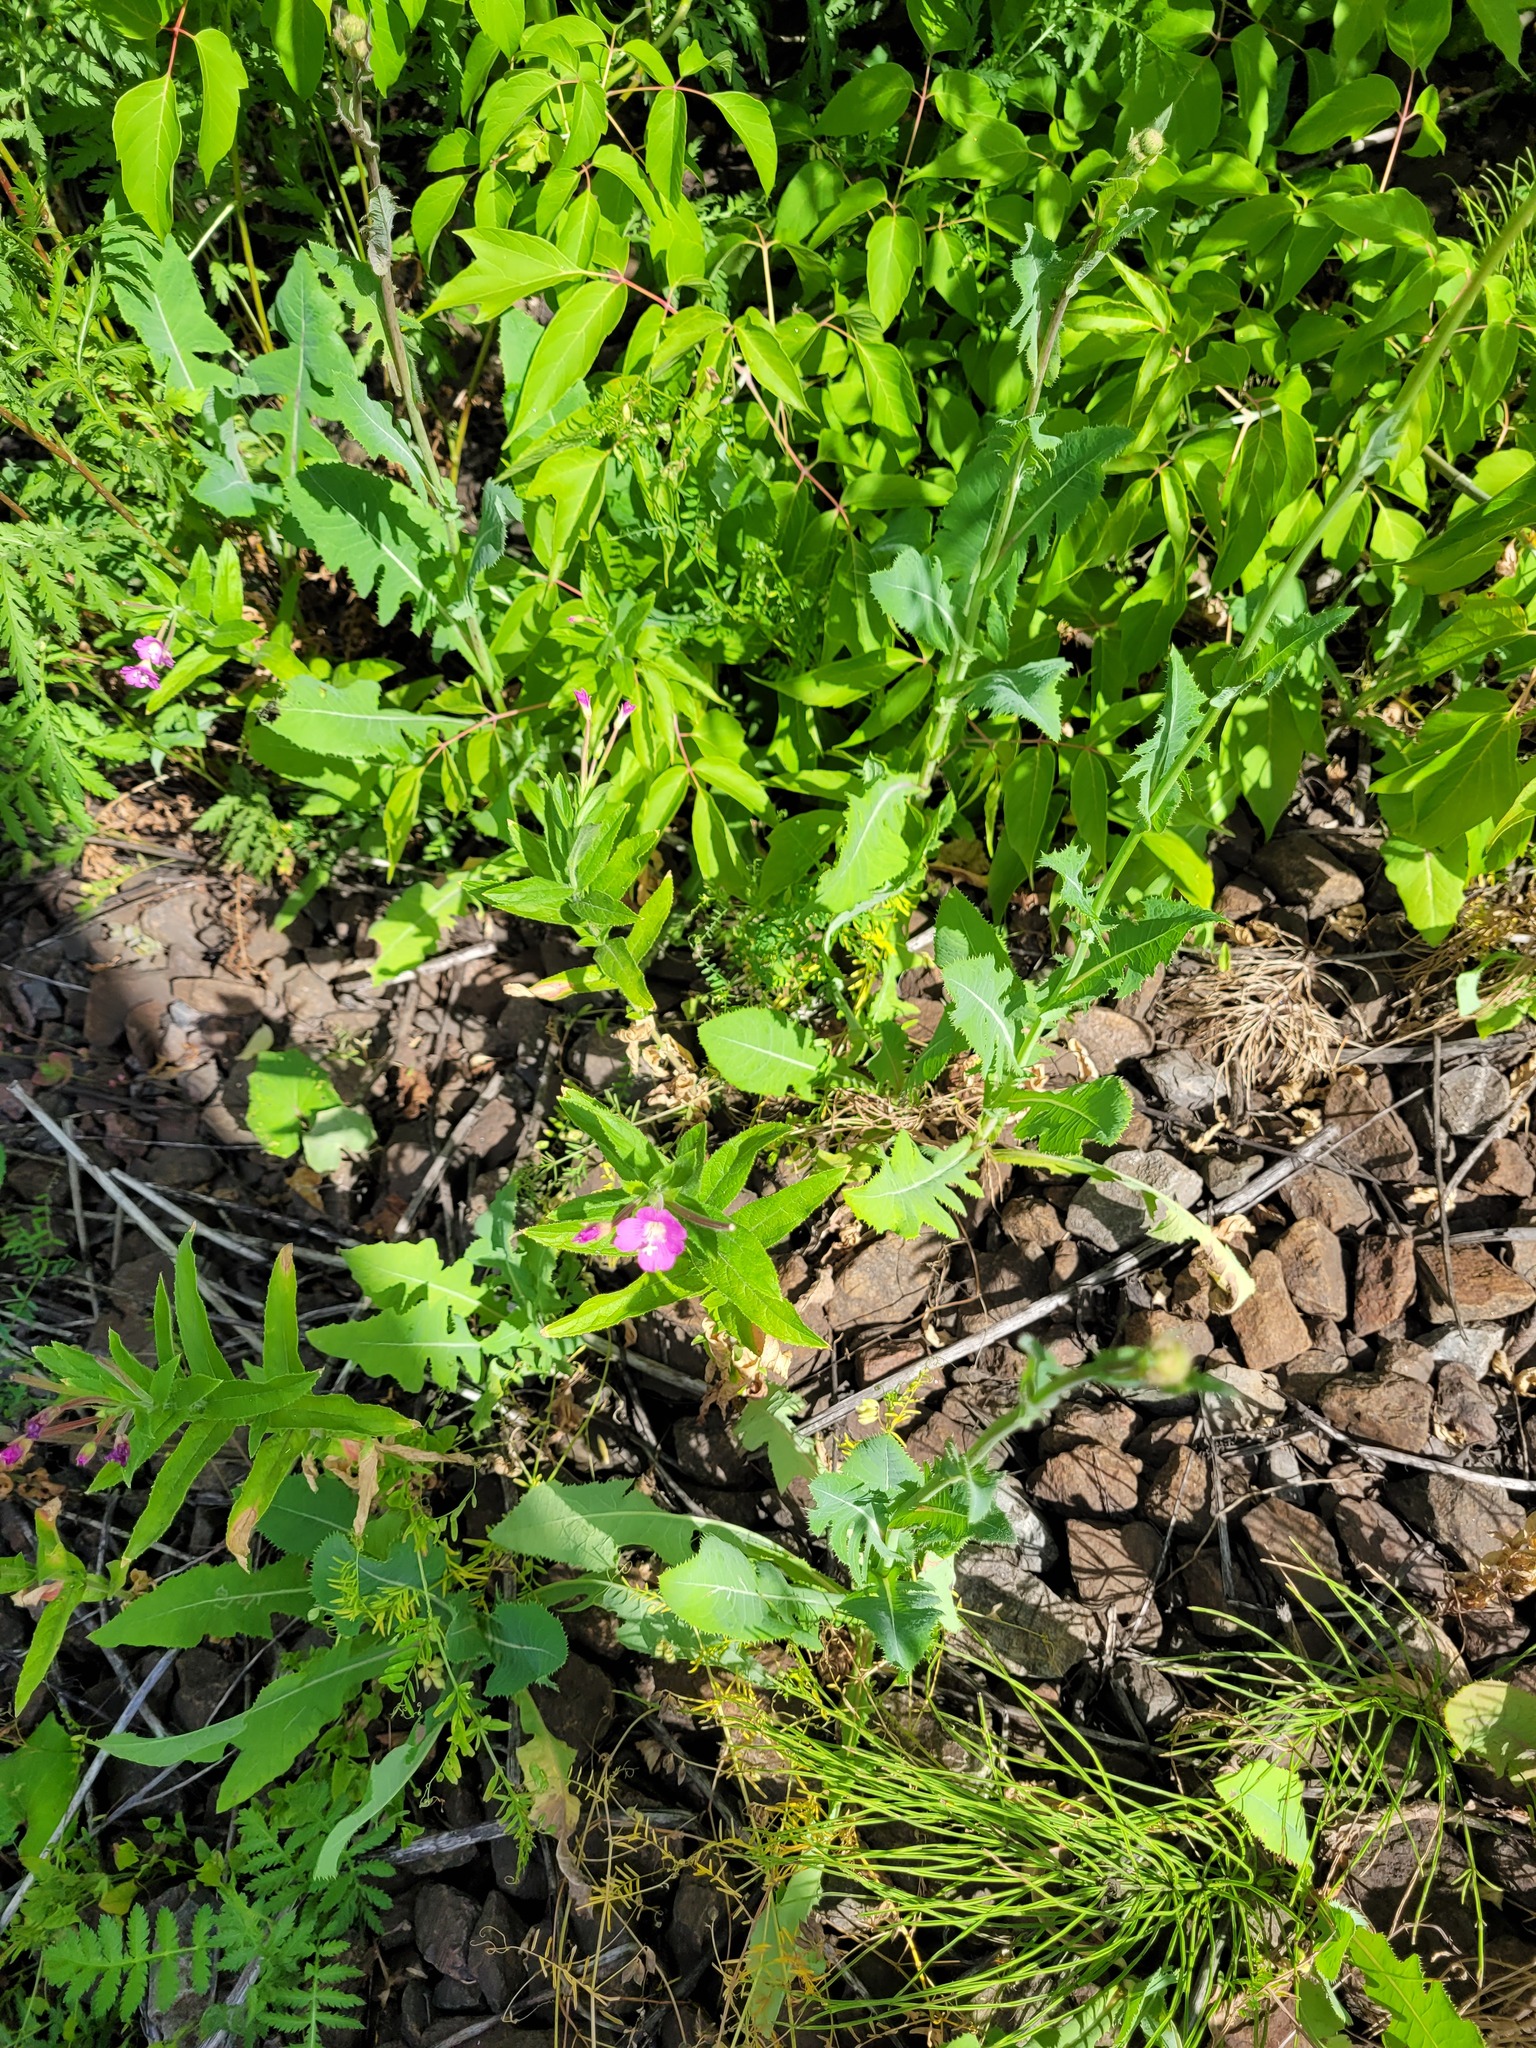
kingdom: Plantae
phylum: Tracheophyta
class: Magnoliopsida
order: Myrtales
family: Onagraceae
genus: Epilobium
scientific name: Epilobium hirsutum
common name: Great willowherb
